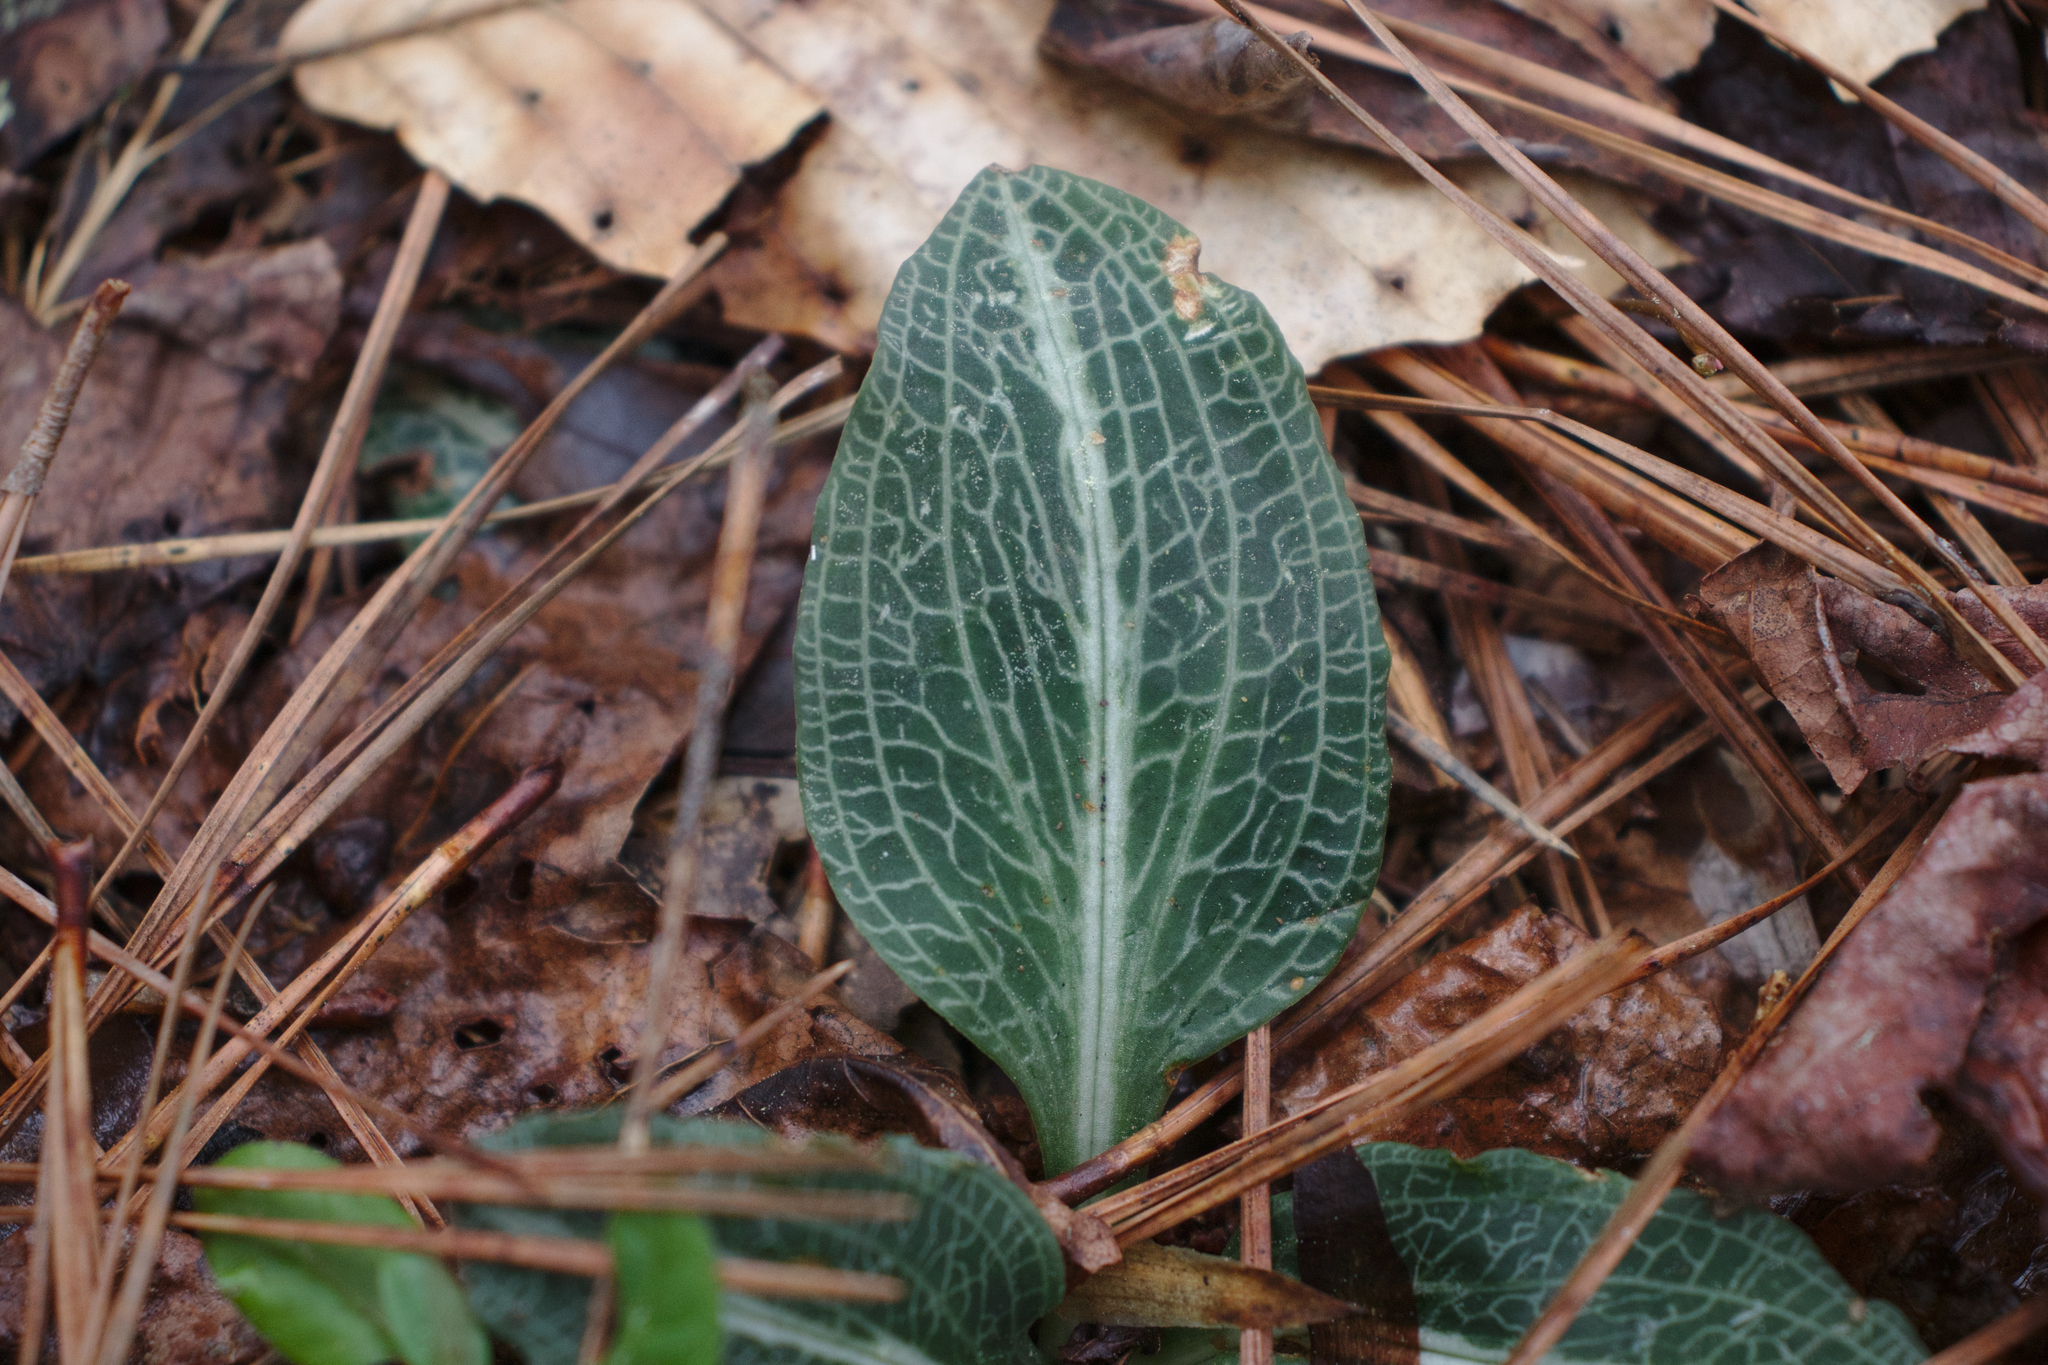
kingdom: Plantae
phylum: Tracheophyta
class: Liliopsida
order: Asparagales
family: Orchidaceae
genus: Goodyera
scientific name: Goodyera pubescens
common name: Downy rattlesnake-plantain
